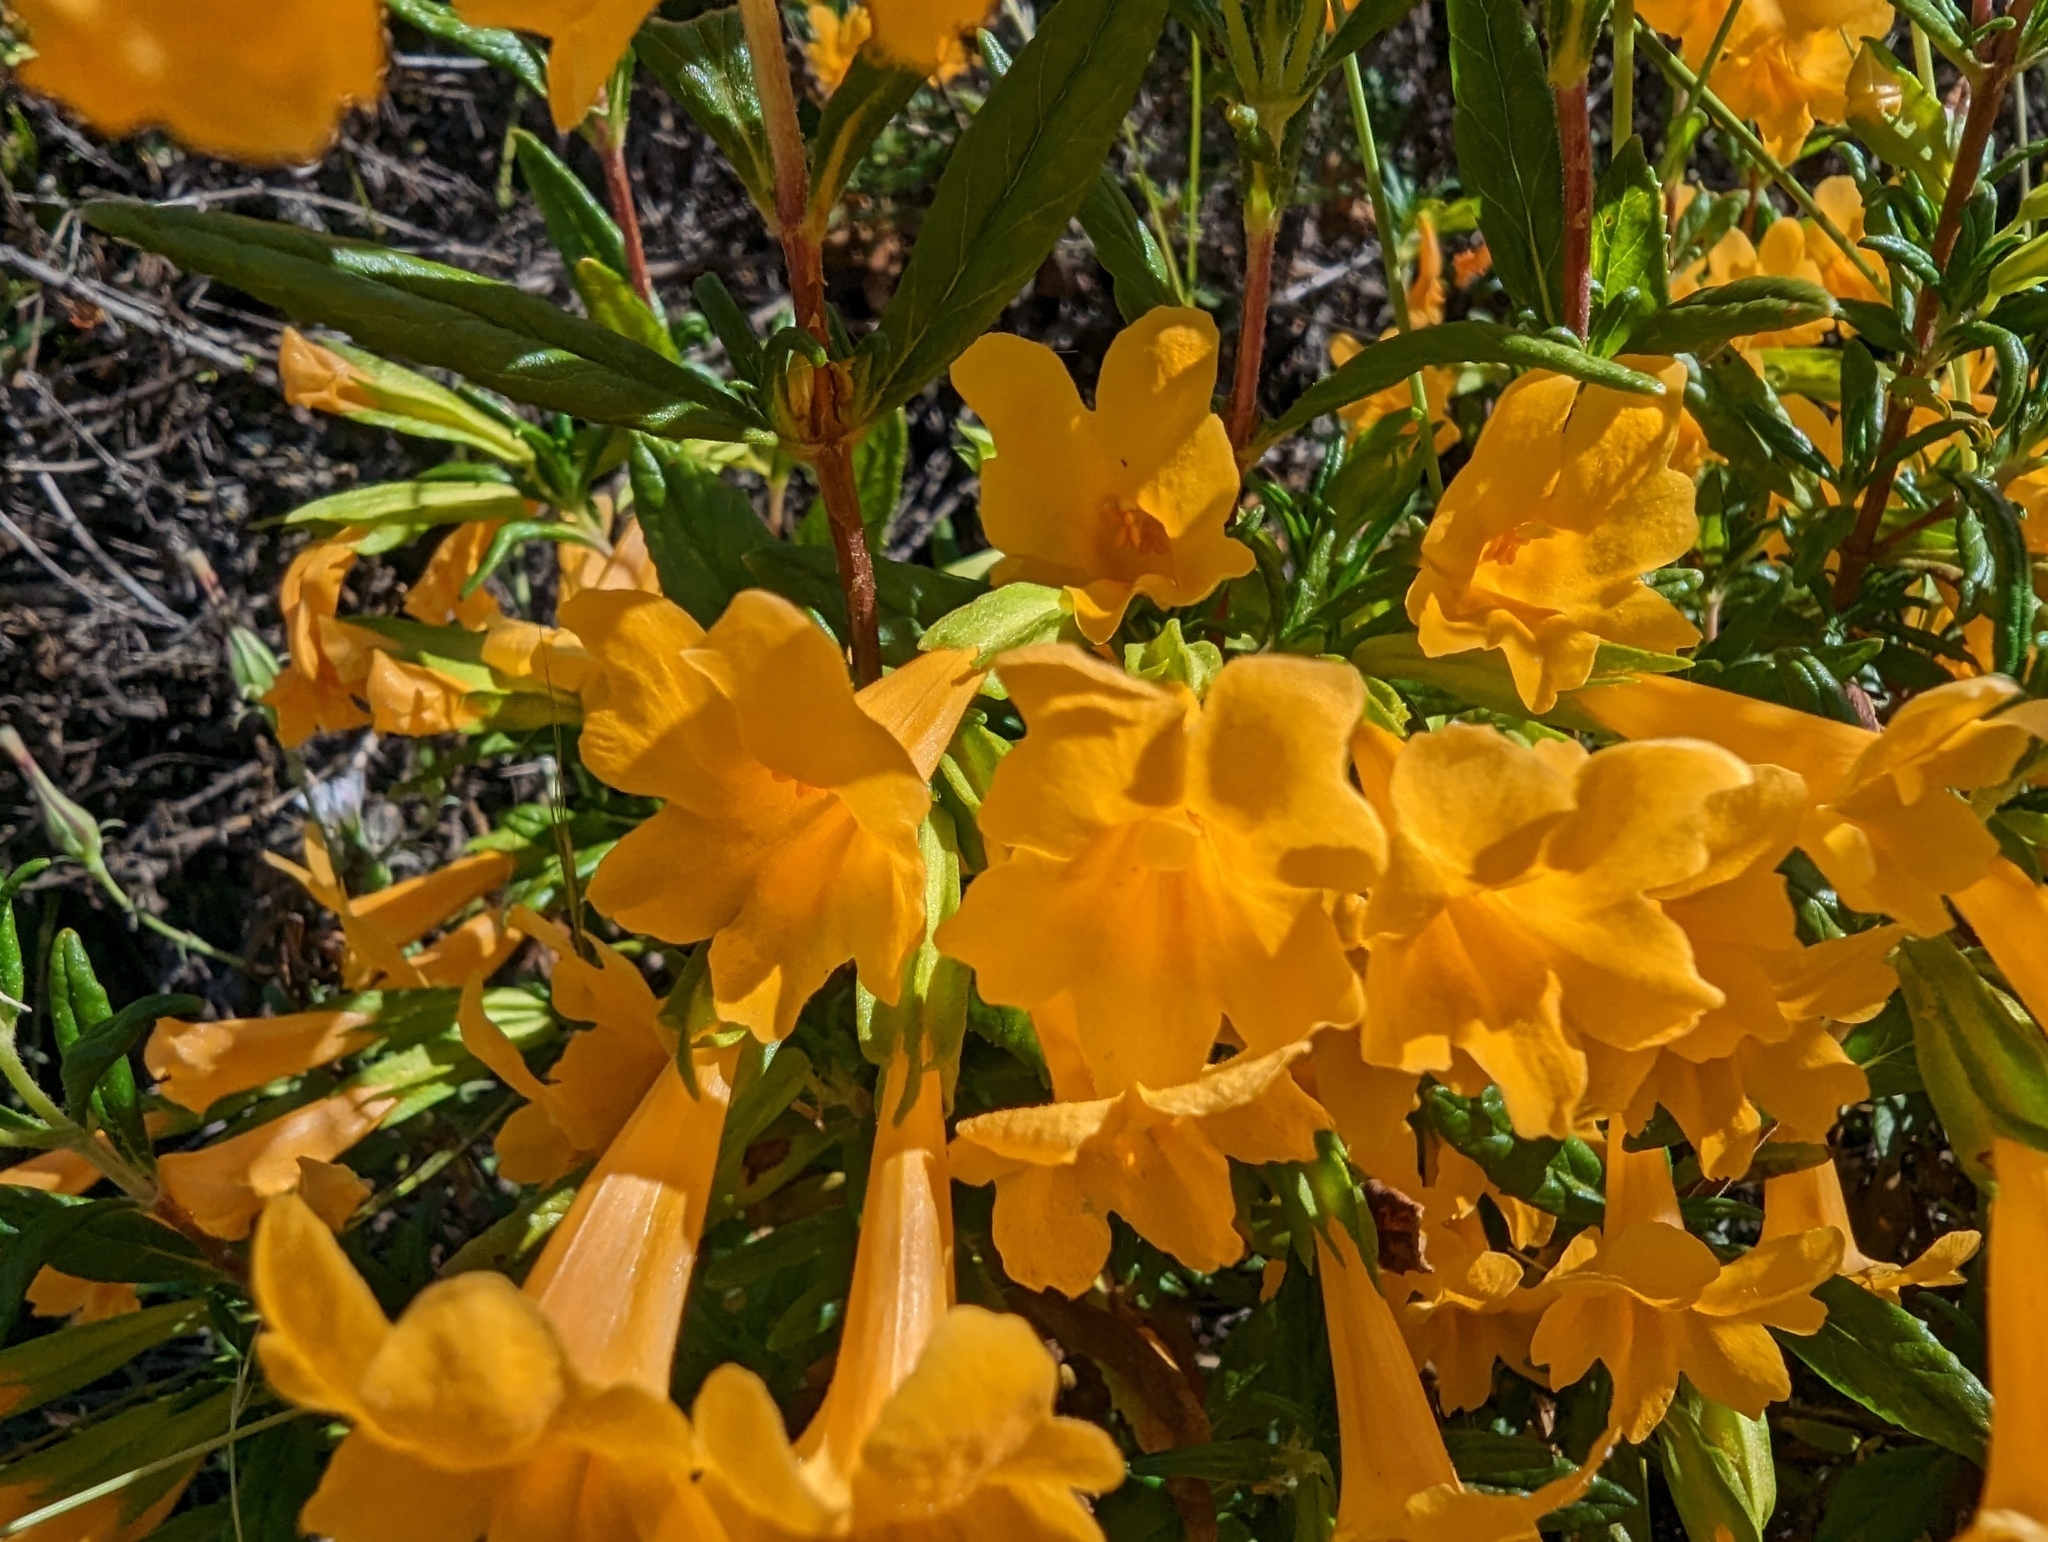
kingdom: Plantae
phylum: Tracheophyta
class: Magnoliopsida
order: Lamiales
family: Phrymaceae
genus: Diplacus
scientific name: Diplacus aurantiacus
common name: Bush monkey-flower
